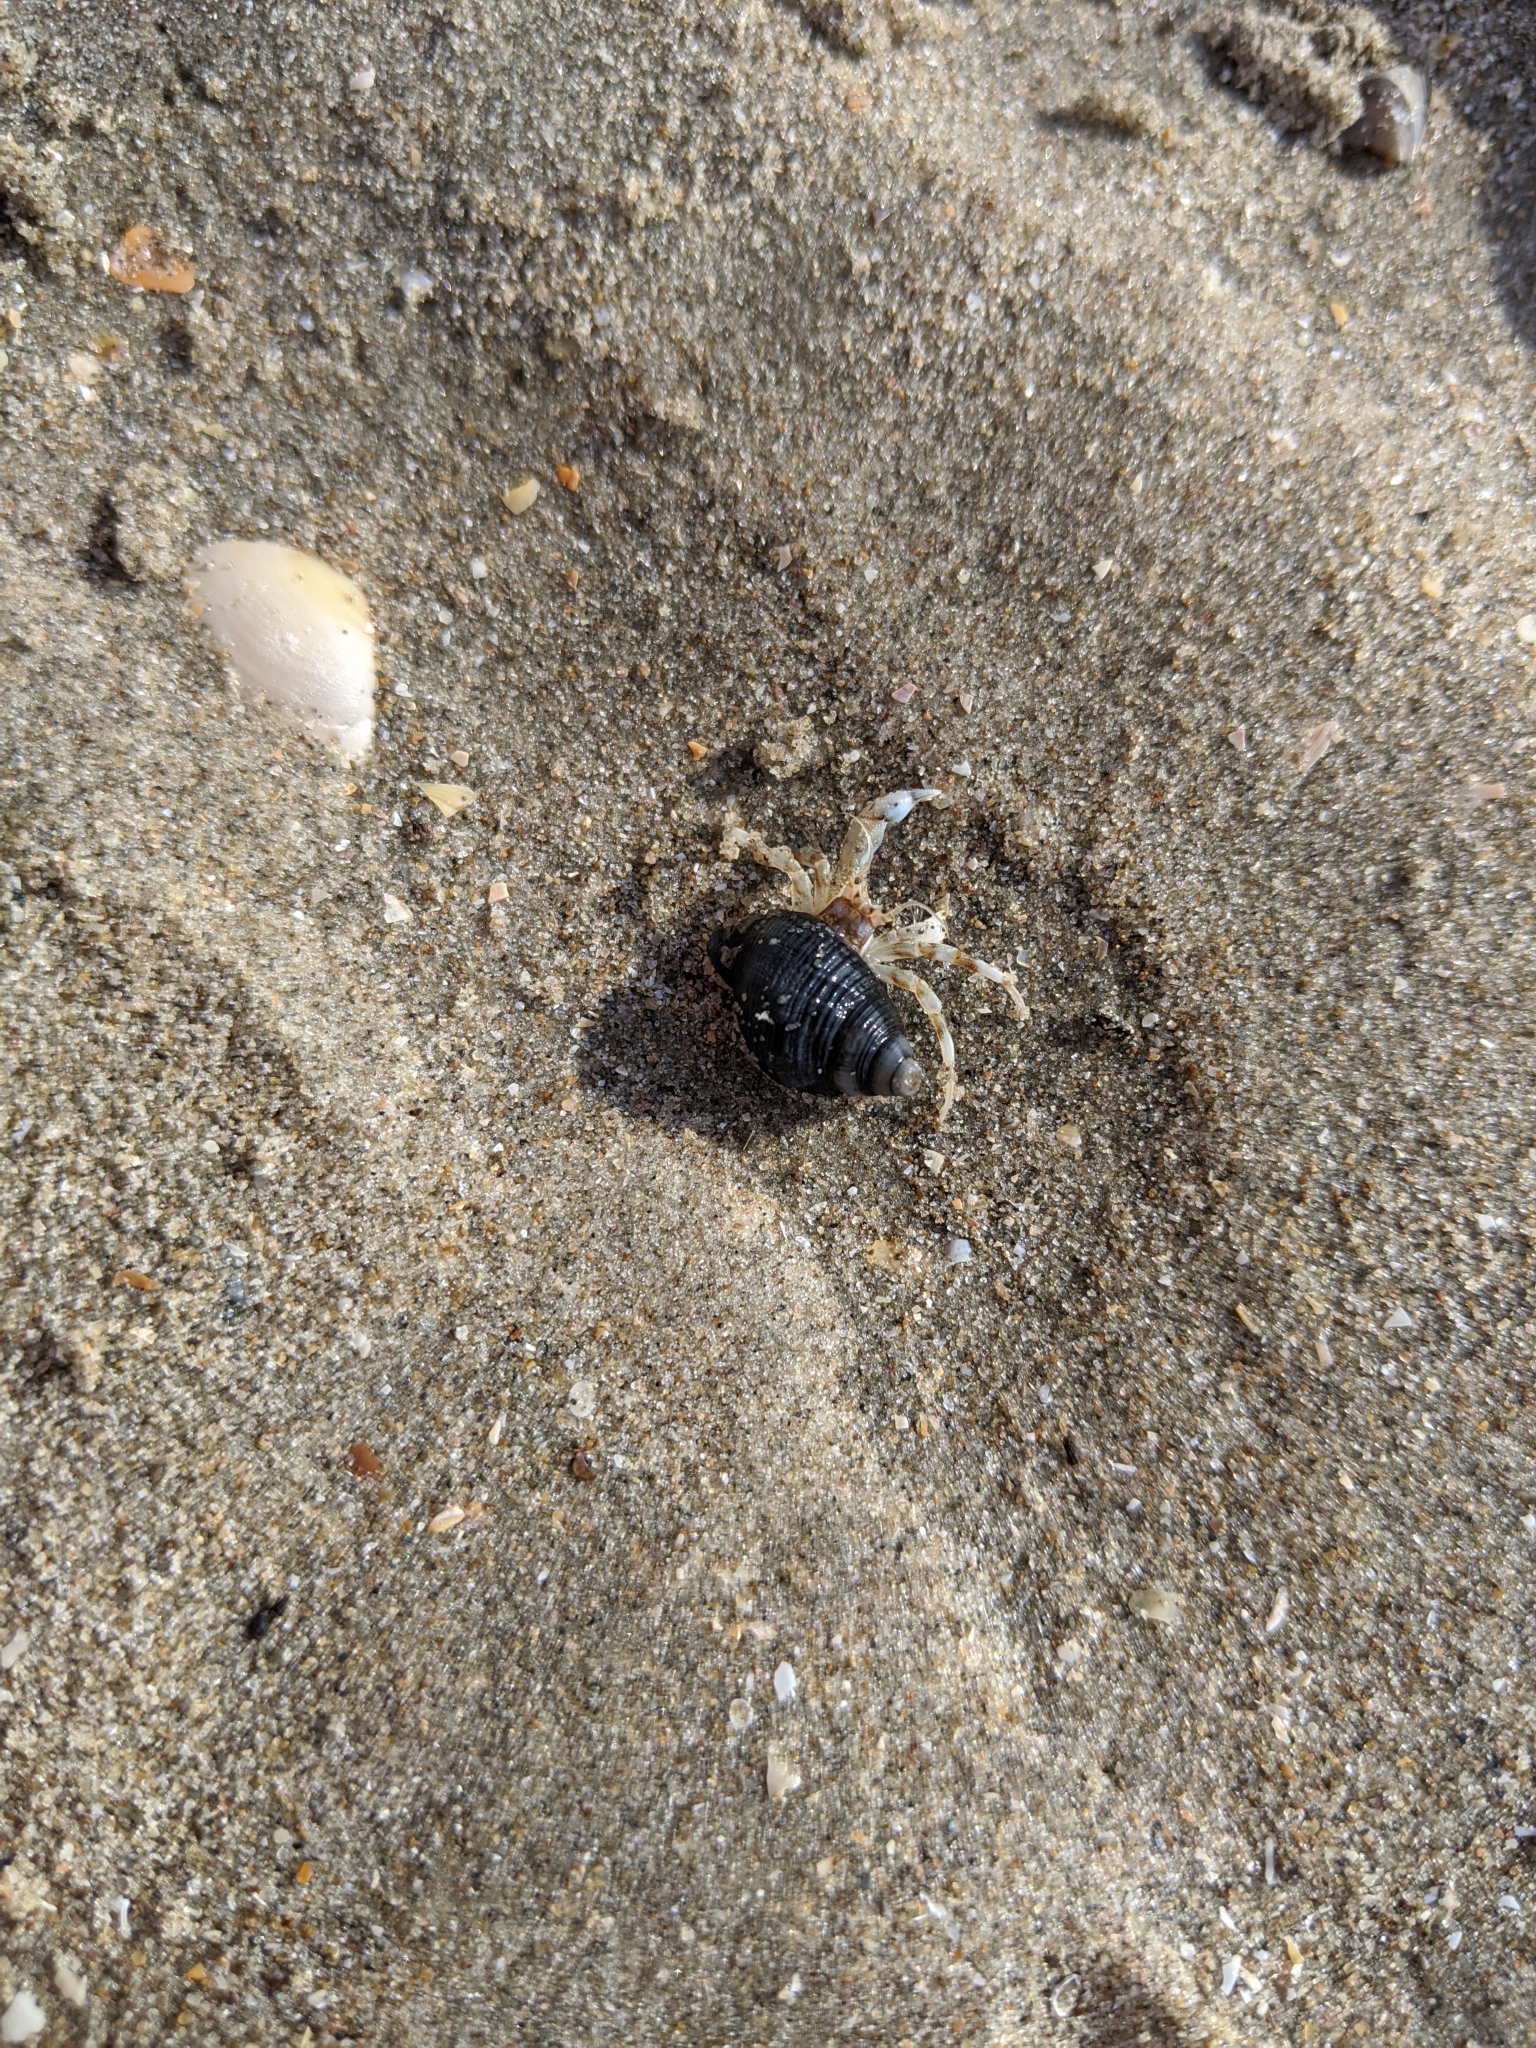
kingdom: Animalia
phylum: Arthropoda
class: Malacostraca
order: Decapoda
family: Diogenidae
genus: Diogenes
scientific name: Diogenes pugilator
